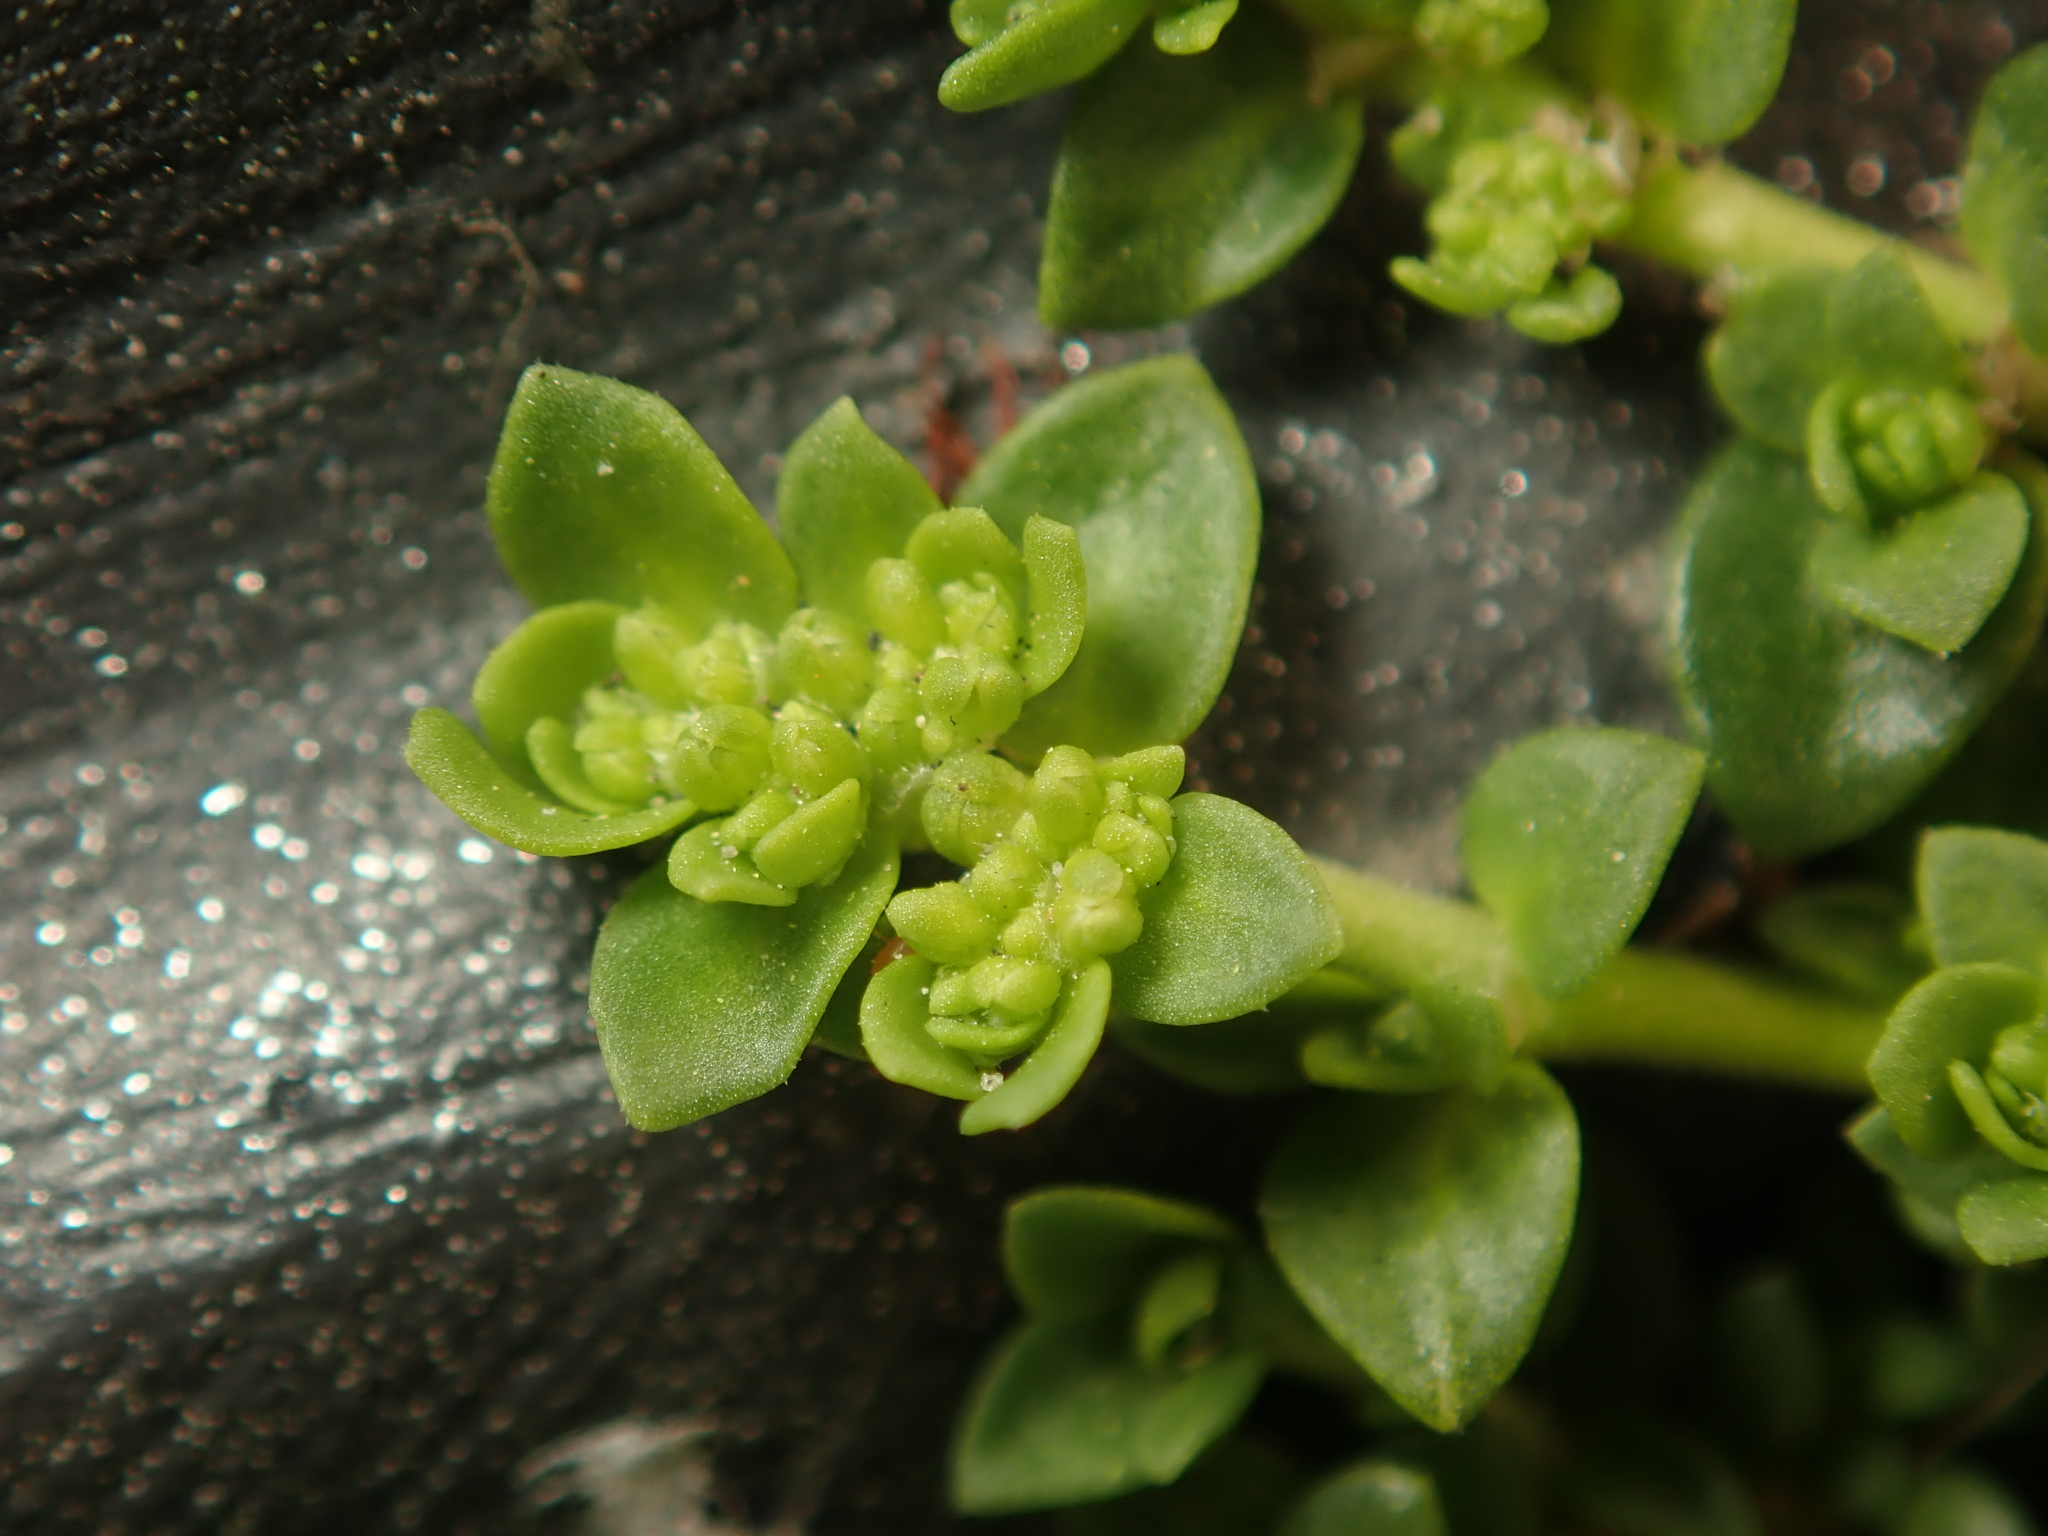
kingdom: Plantae
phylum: Tracheophyta
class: Magnoliopsida
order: Caryophyllales
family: Caryophyllaceae
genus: Herniaria
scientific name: Herniaria glabra
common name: Smooth rupturewort
